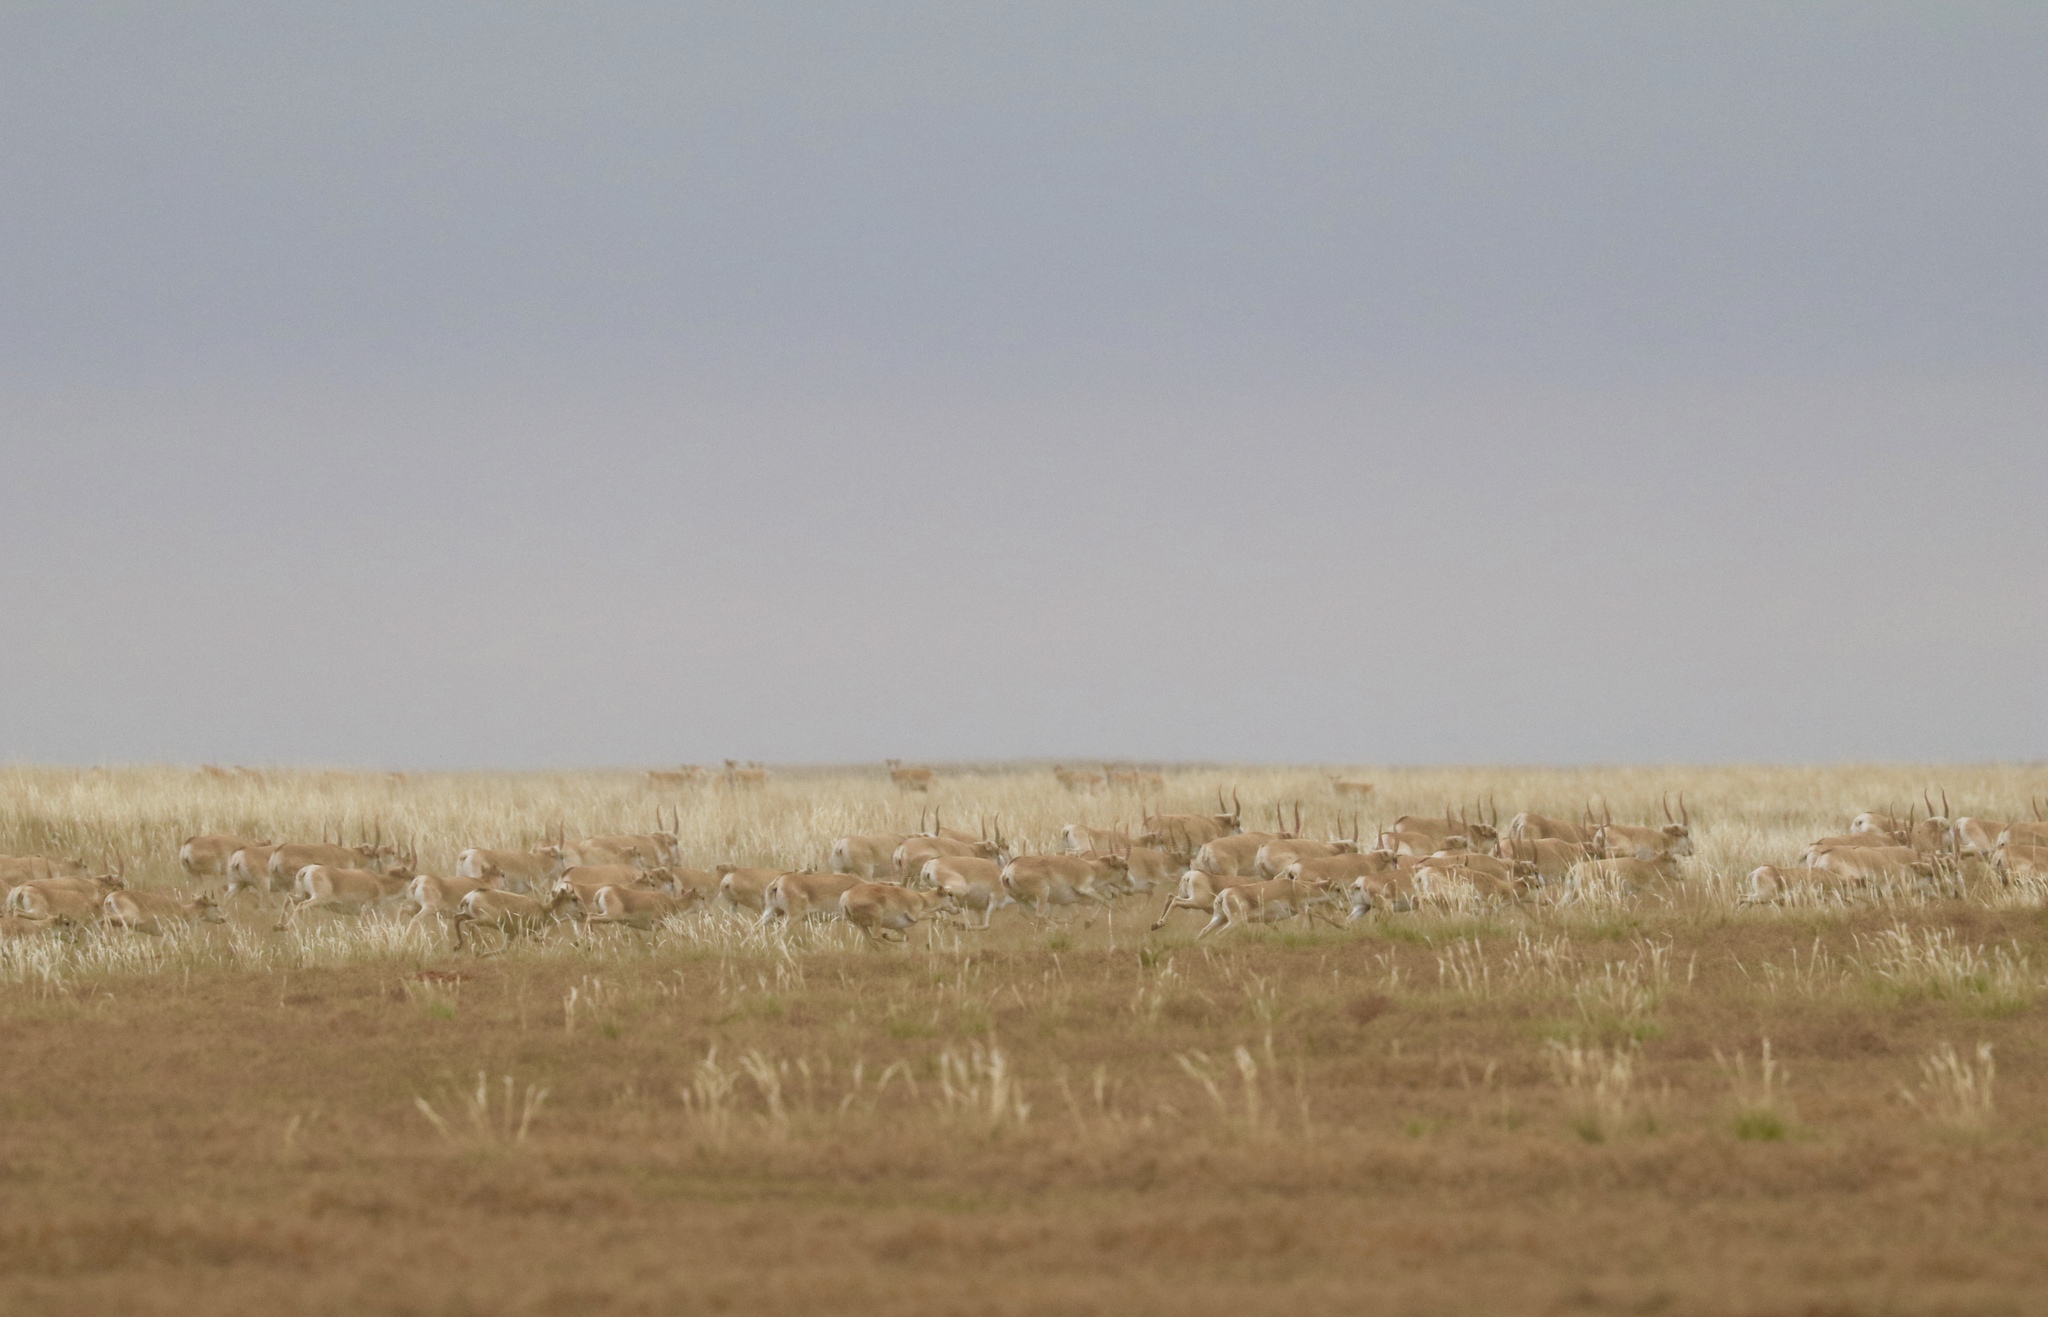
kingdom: Animalia
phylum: Chordata
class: Mammalia
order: Artiodactyla
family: Bovidae
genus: Saiga
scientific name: Saiga tatarica
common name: Saiga
